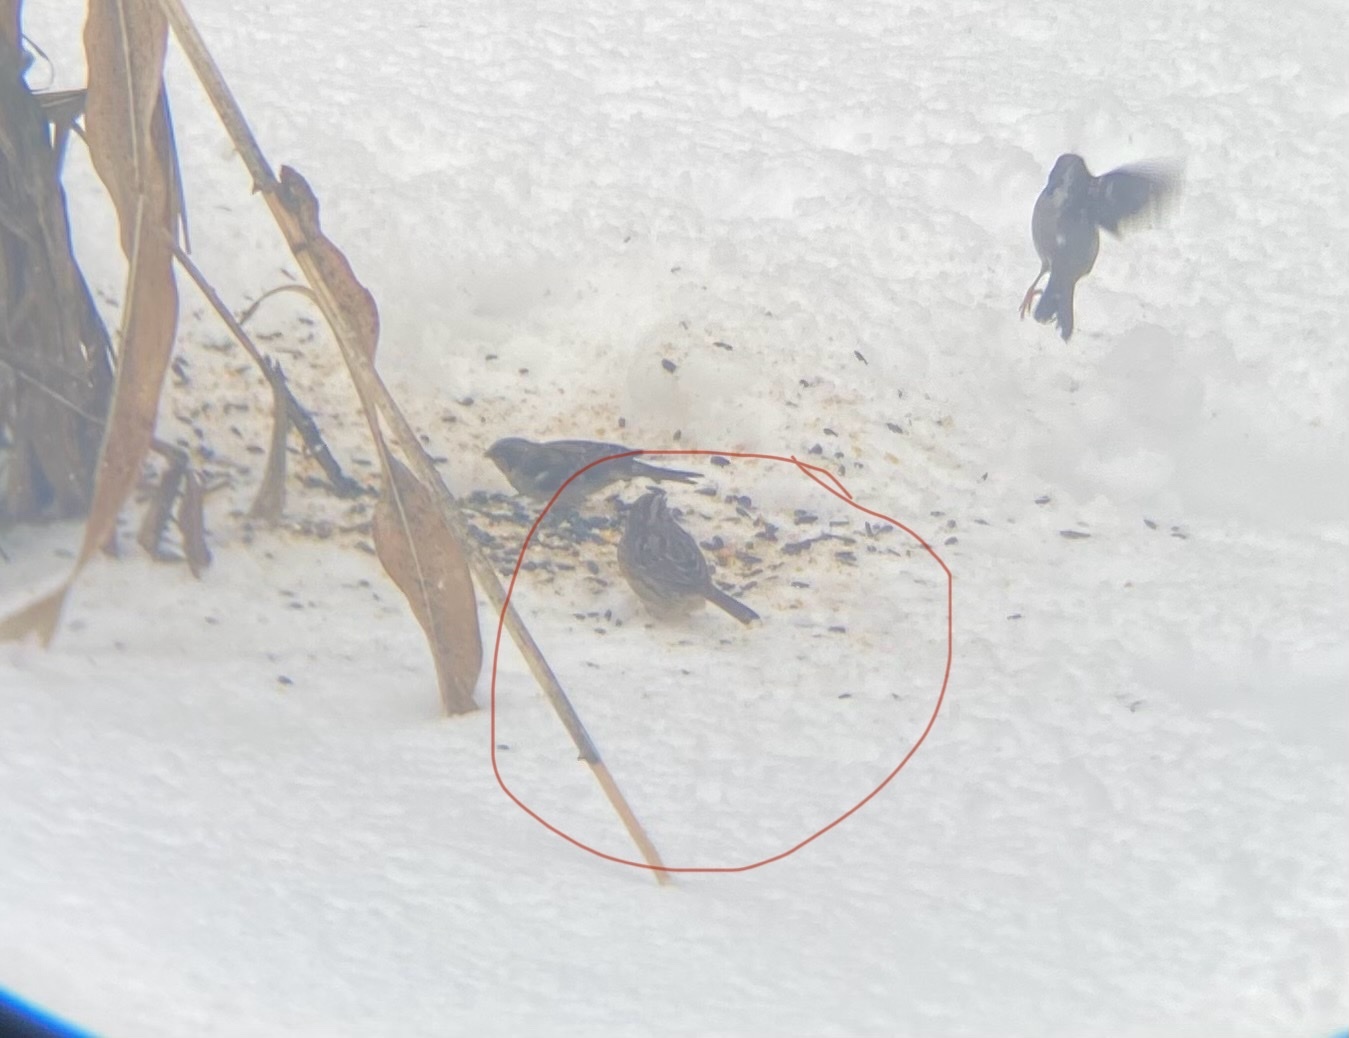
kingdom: Animalia
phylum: Chordata
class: Aves
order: Passeriformes
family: Passerellidae
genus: Melospiza
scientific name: Melospiza melodia
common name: Song sparrow
